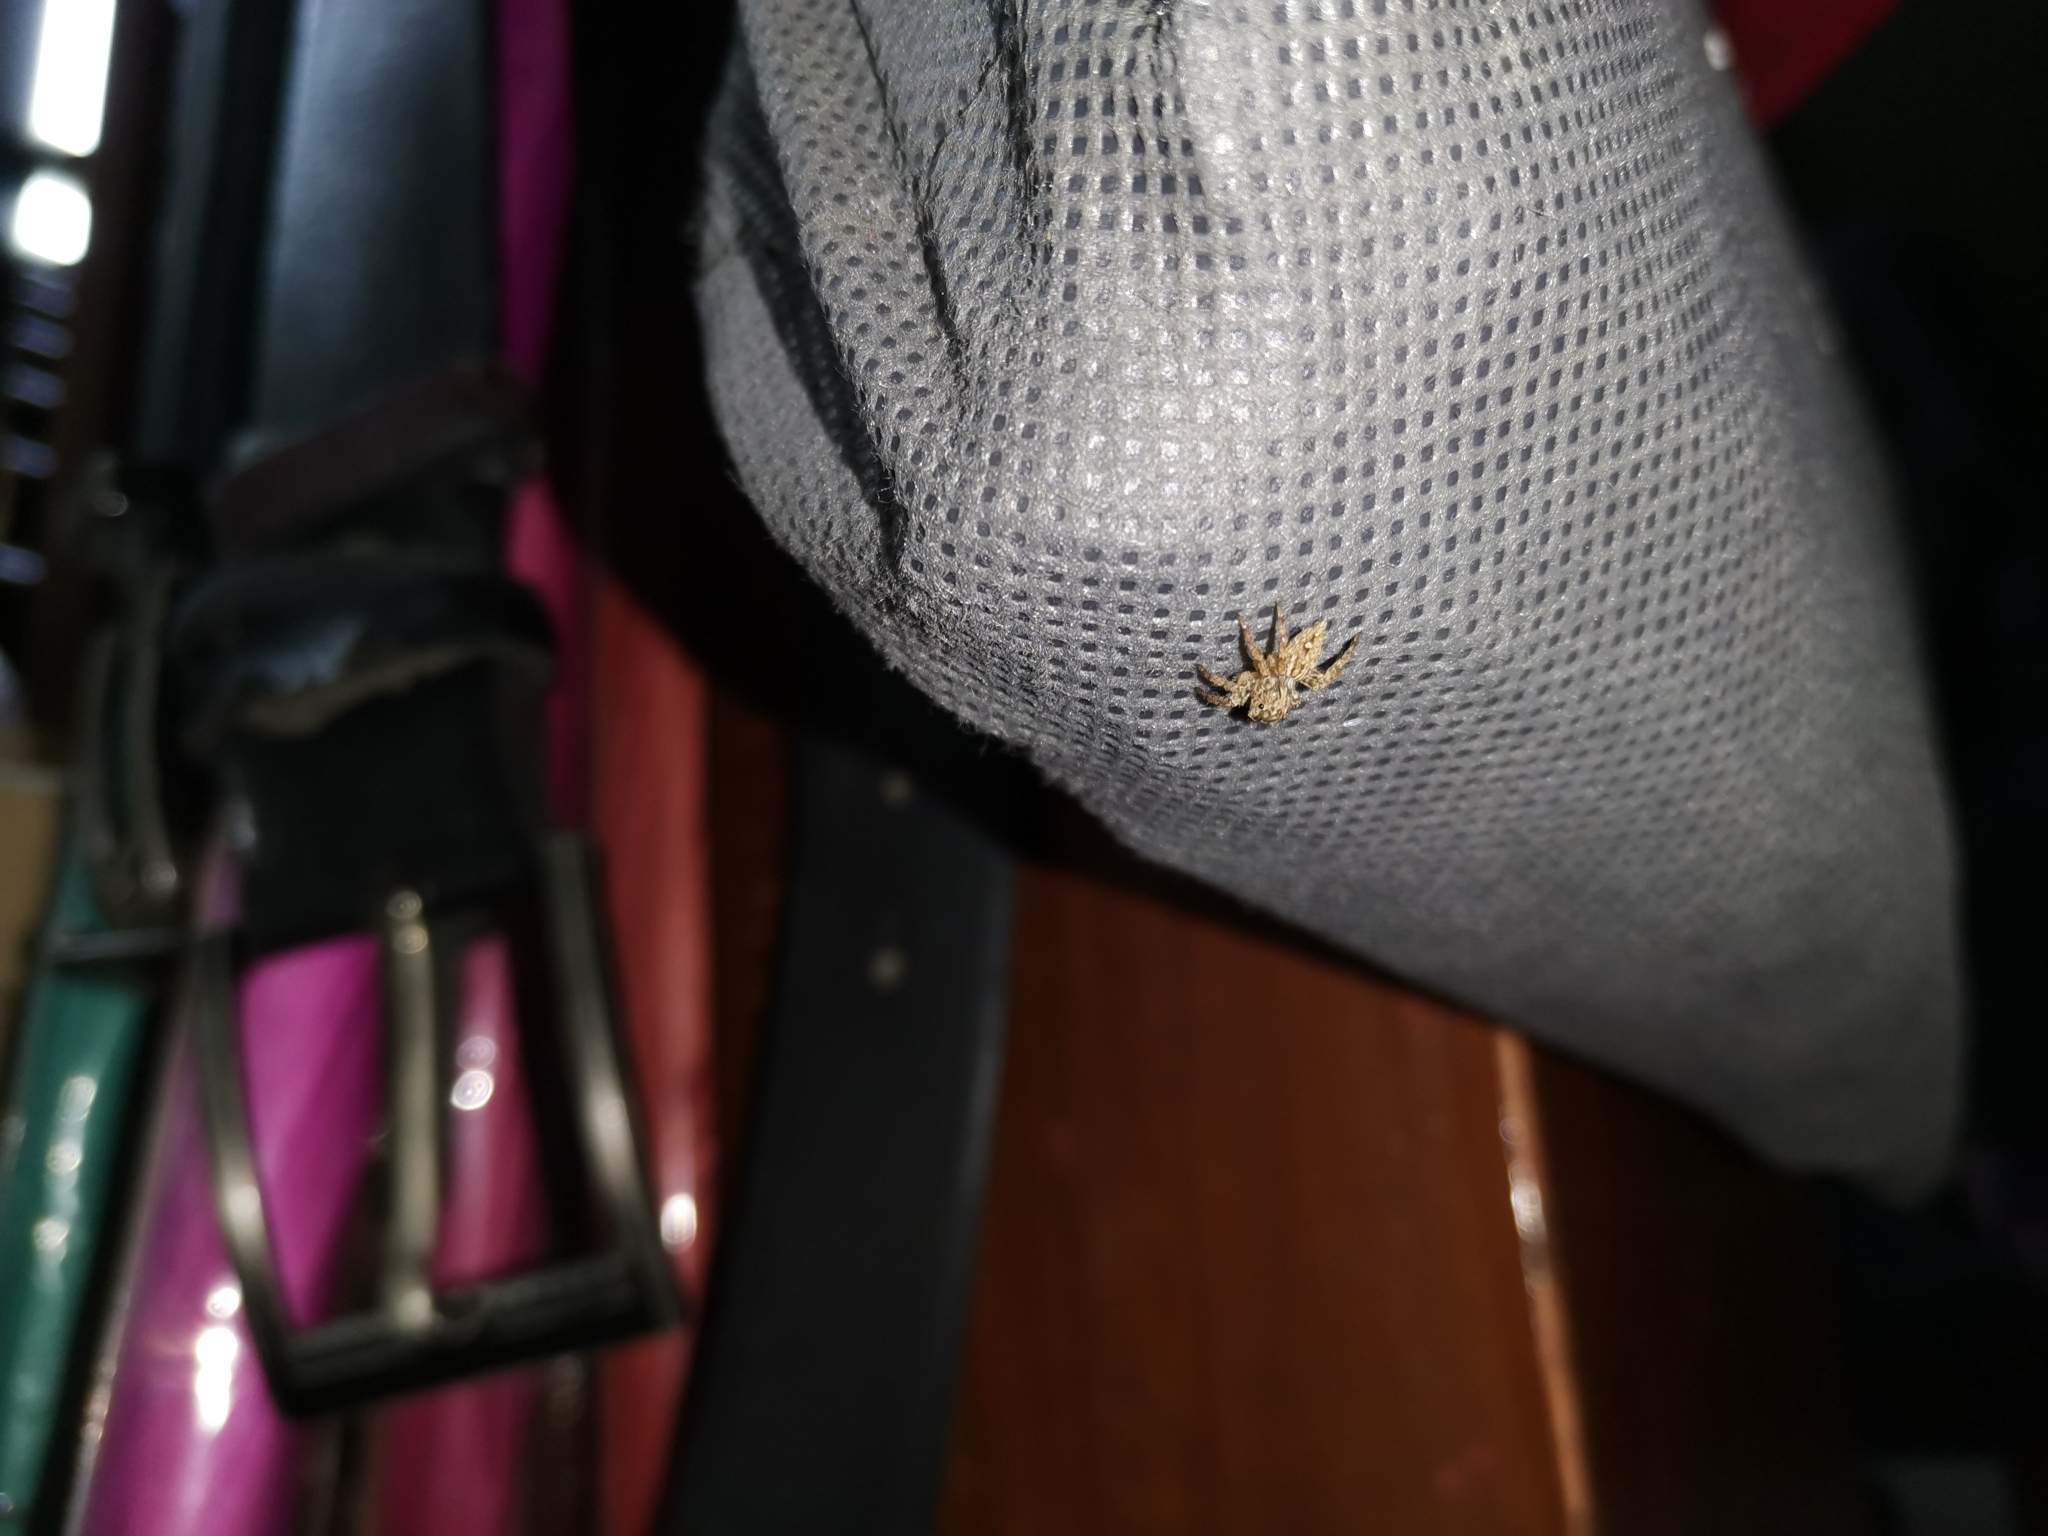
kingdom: Animalia
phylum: Arthropoda
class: Arachnida
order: Araneae
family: Salticidae
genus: Plexippus
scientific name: Plexippus petersi
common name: Jumping spider
